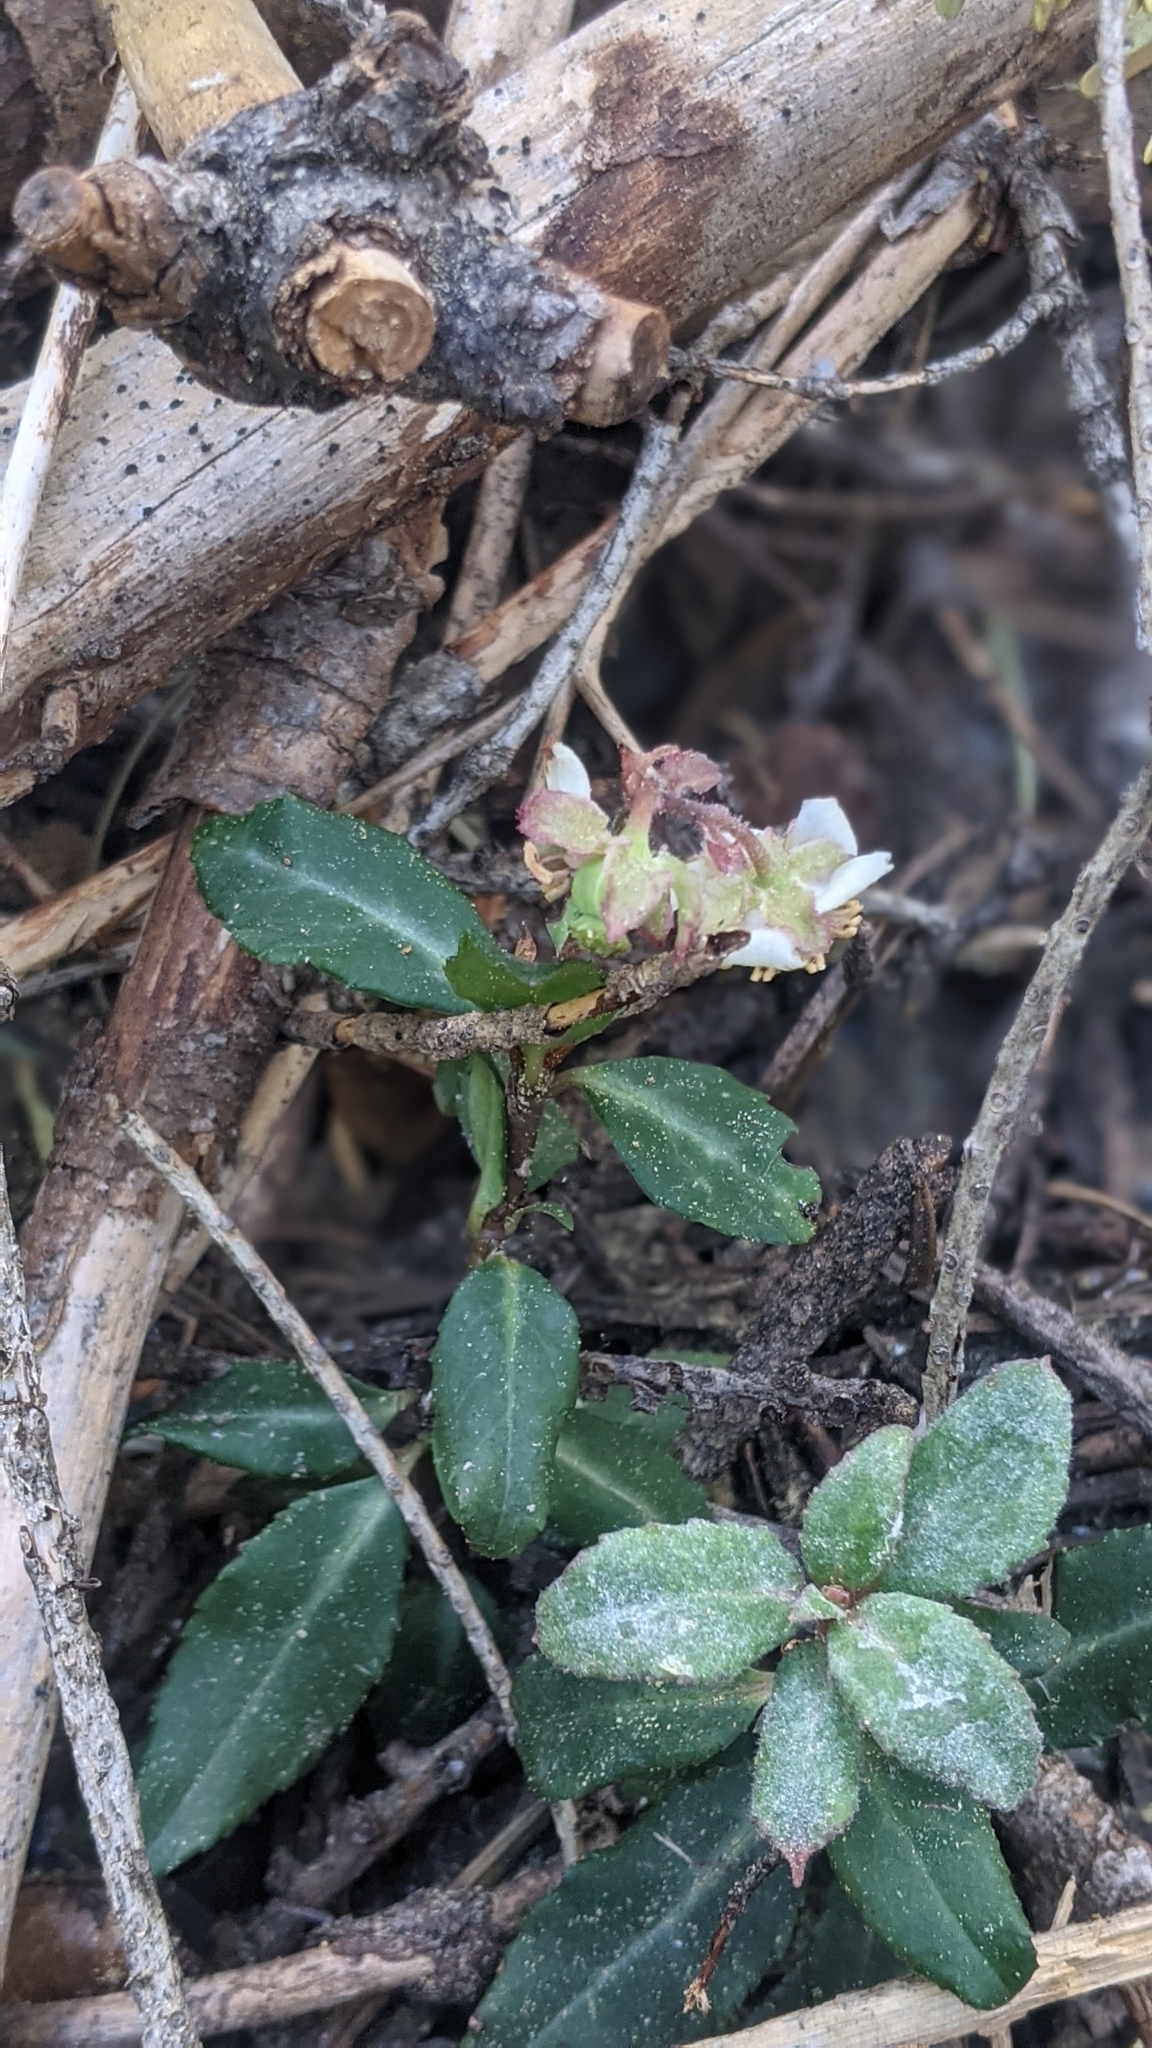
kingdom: Plantae
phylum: Tracheophyta
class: Magnoliopsida
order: Ericales
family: Ericaceae
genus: Chimaphila
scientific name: Chimaphila menziesii
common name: Menzies' pipsissewa
